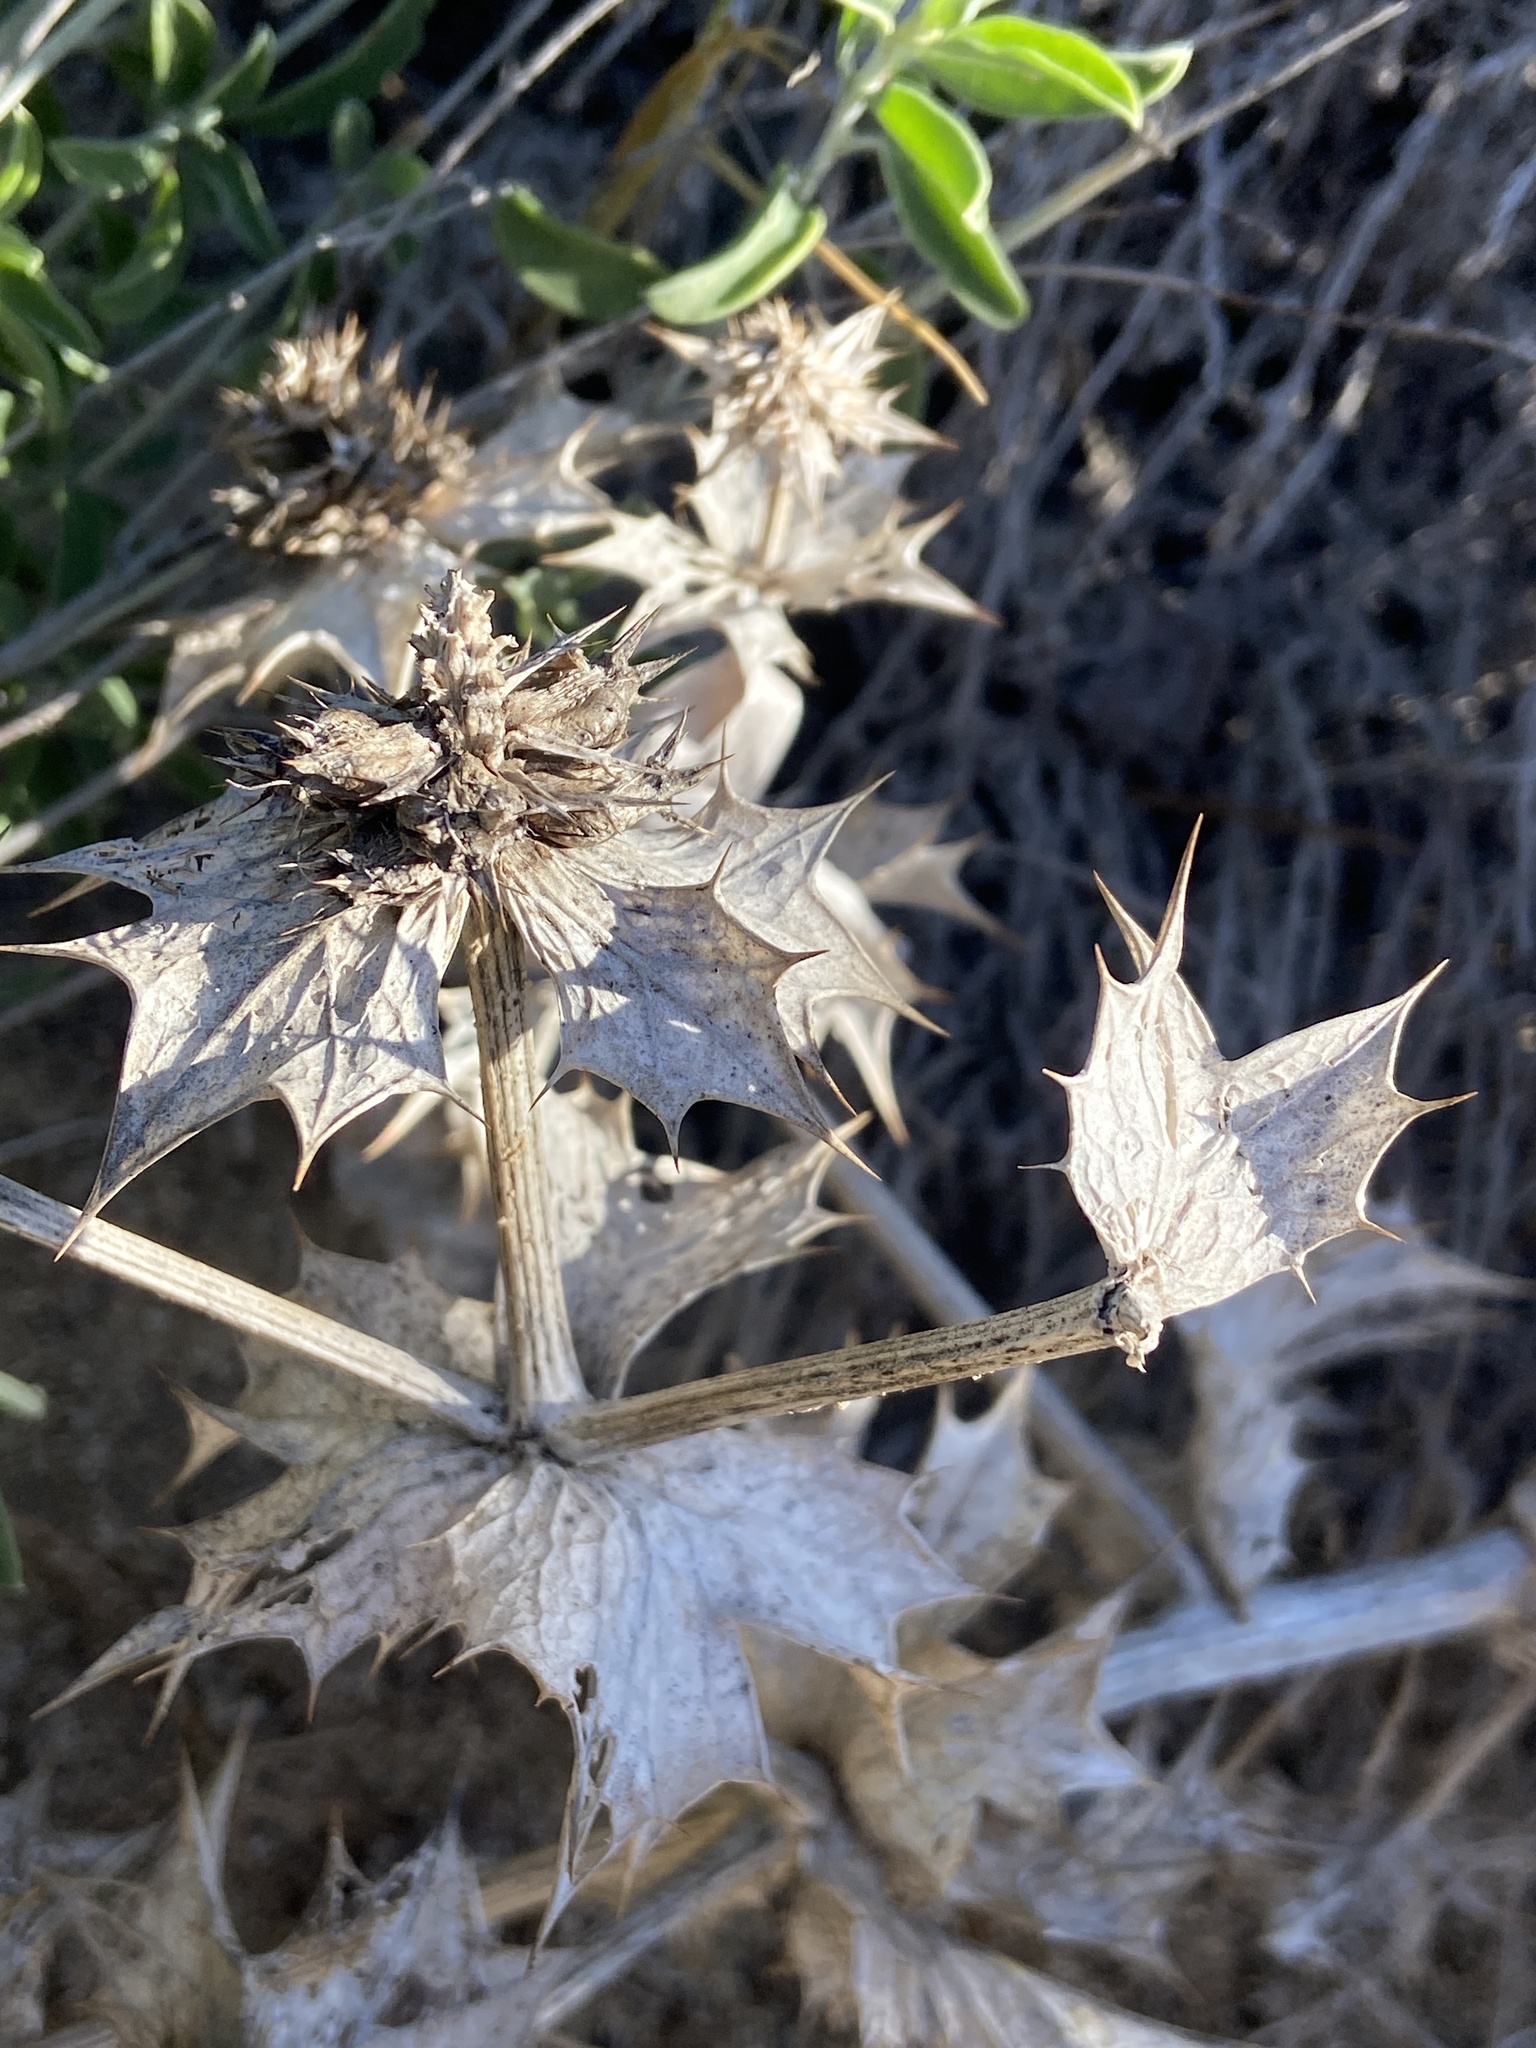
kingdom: Plantae
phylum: Tracheophyta
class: Magnoliopsida
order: Apiales
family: Apiaceae
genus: Eryngium
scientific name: Eryngium maritimum
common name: Sea-holly
